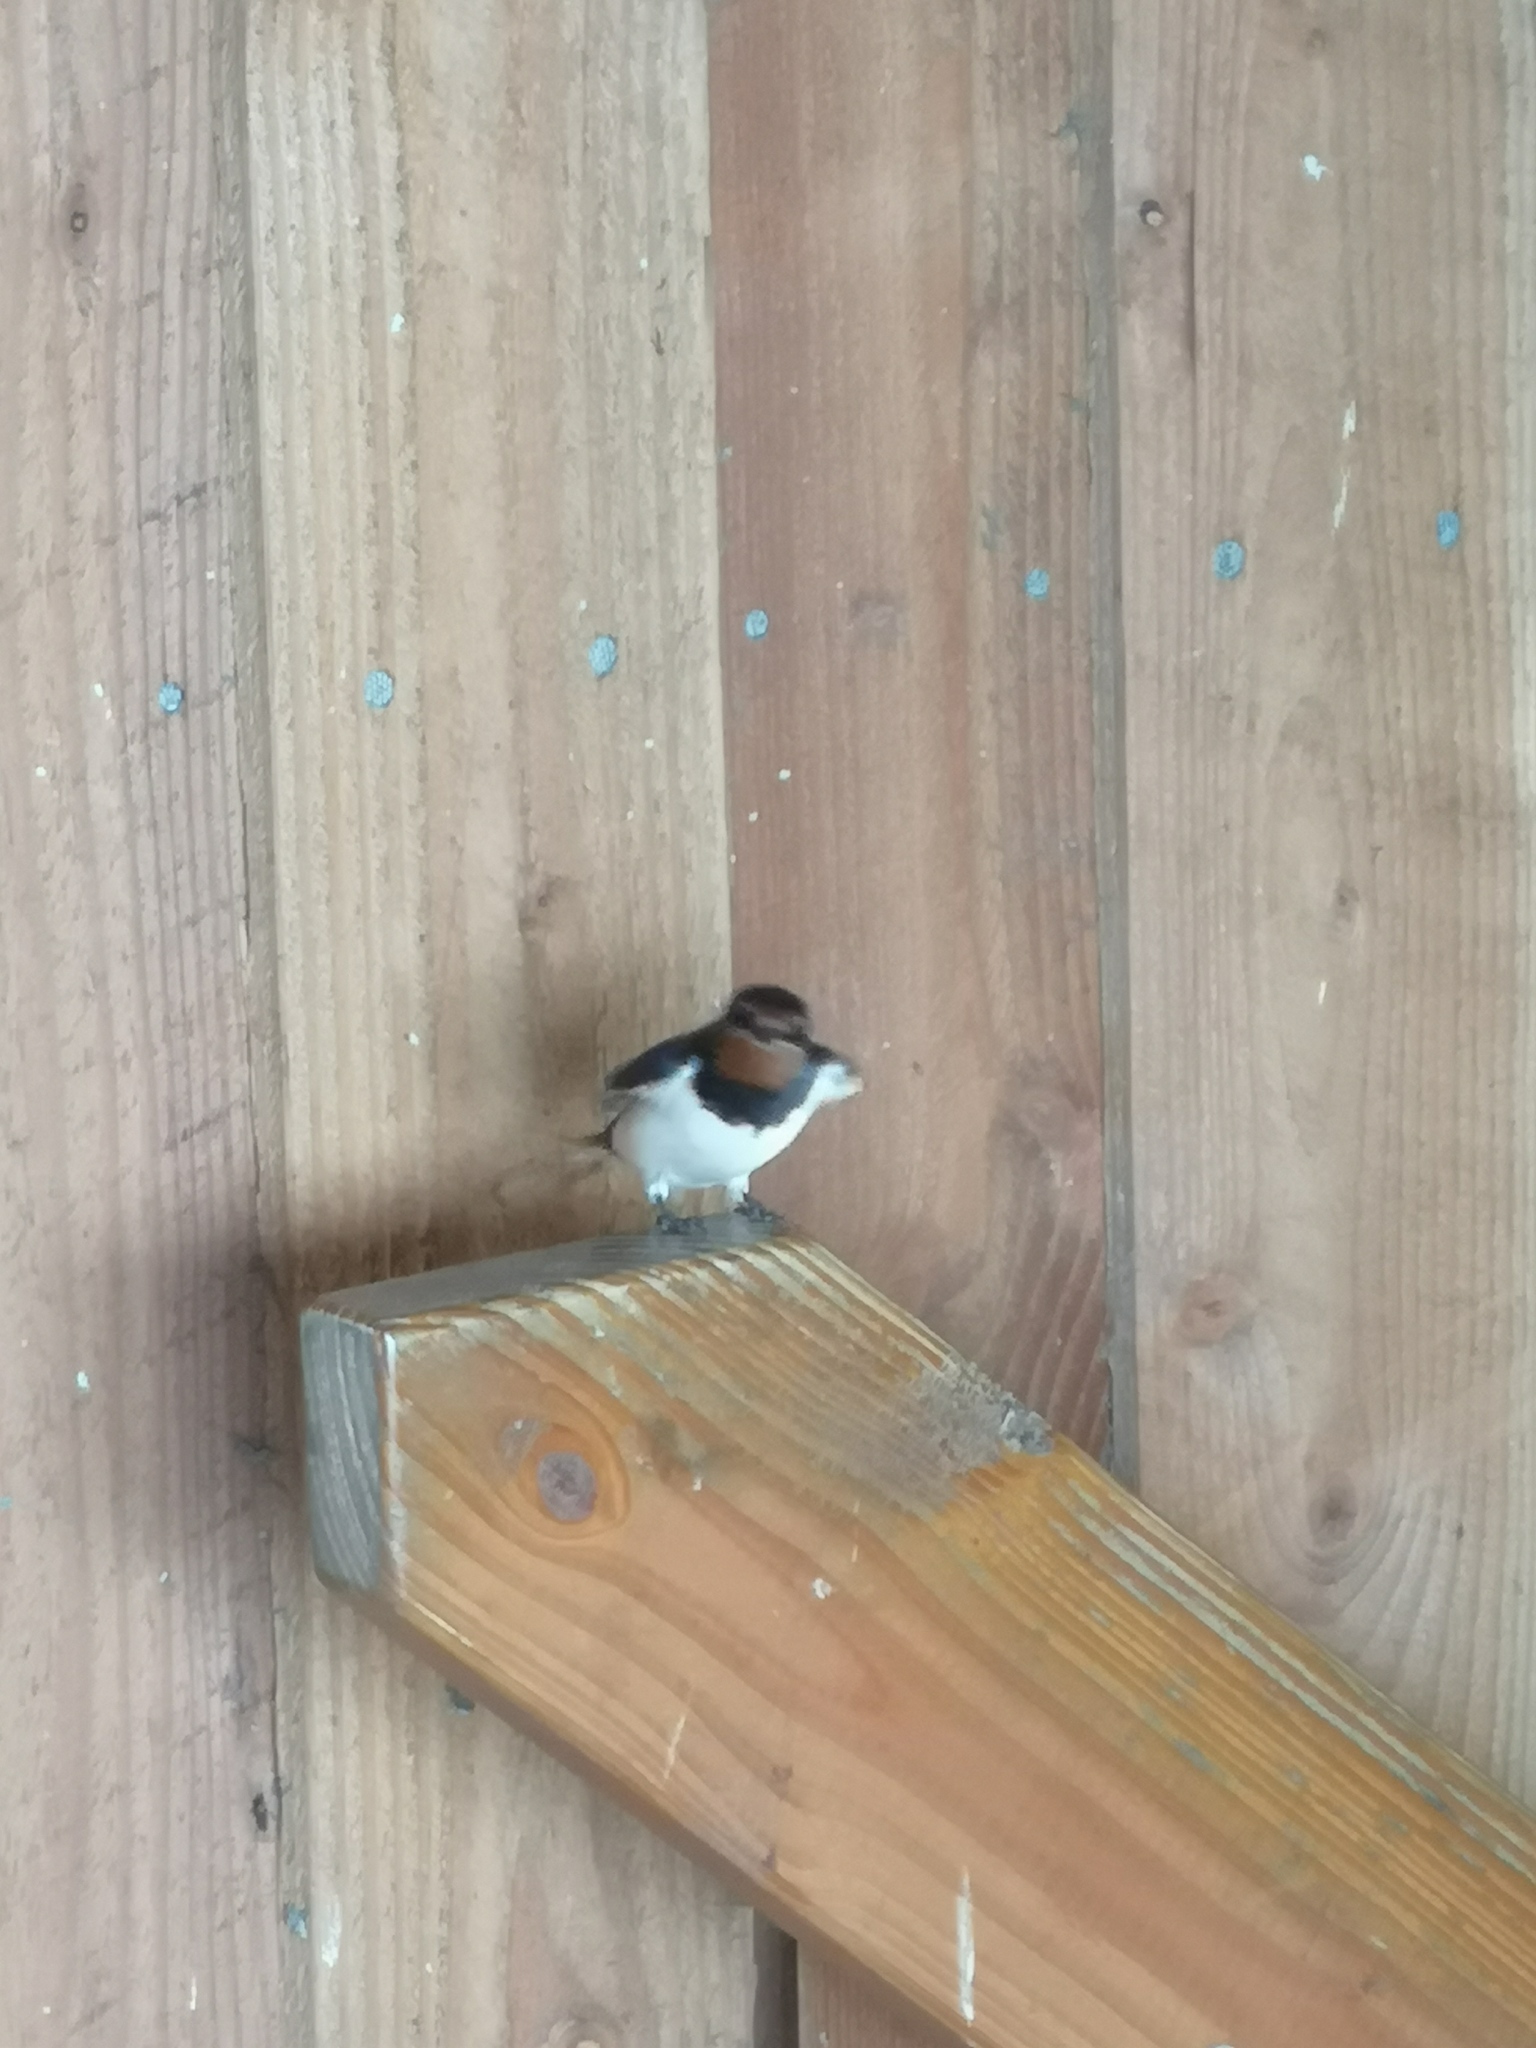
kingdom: Animalia
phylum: Chordata
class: Aves
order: Passeriformes
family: Hirundinidae
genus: Hirundo
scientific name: Hirundo rustica
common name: Barn swallow
